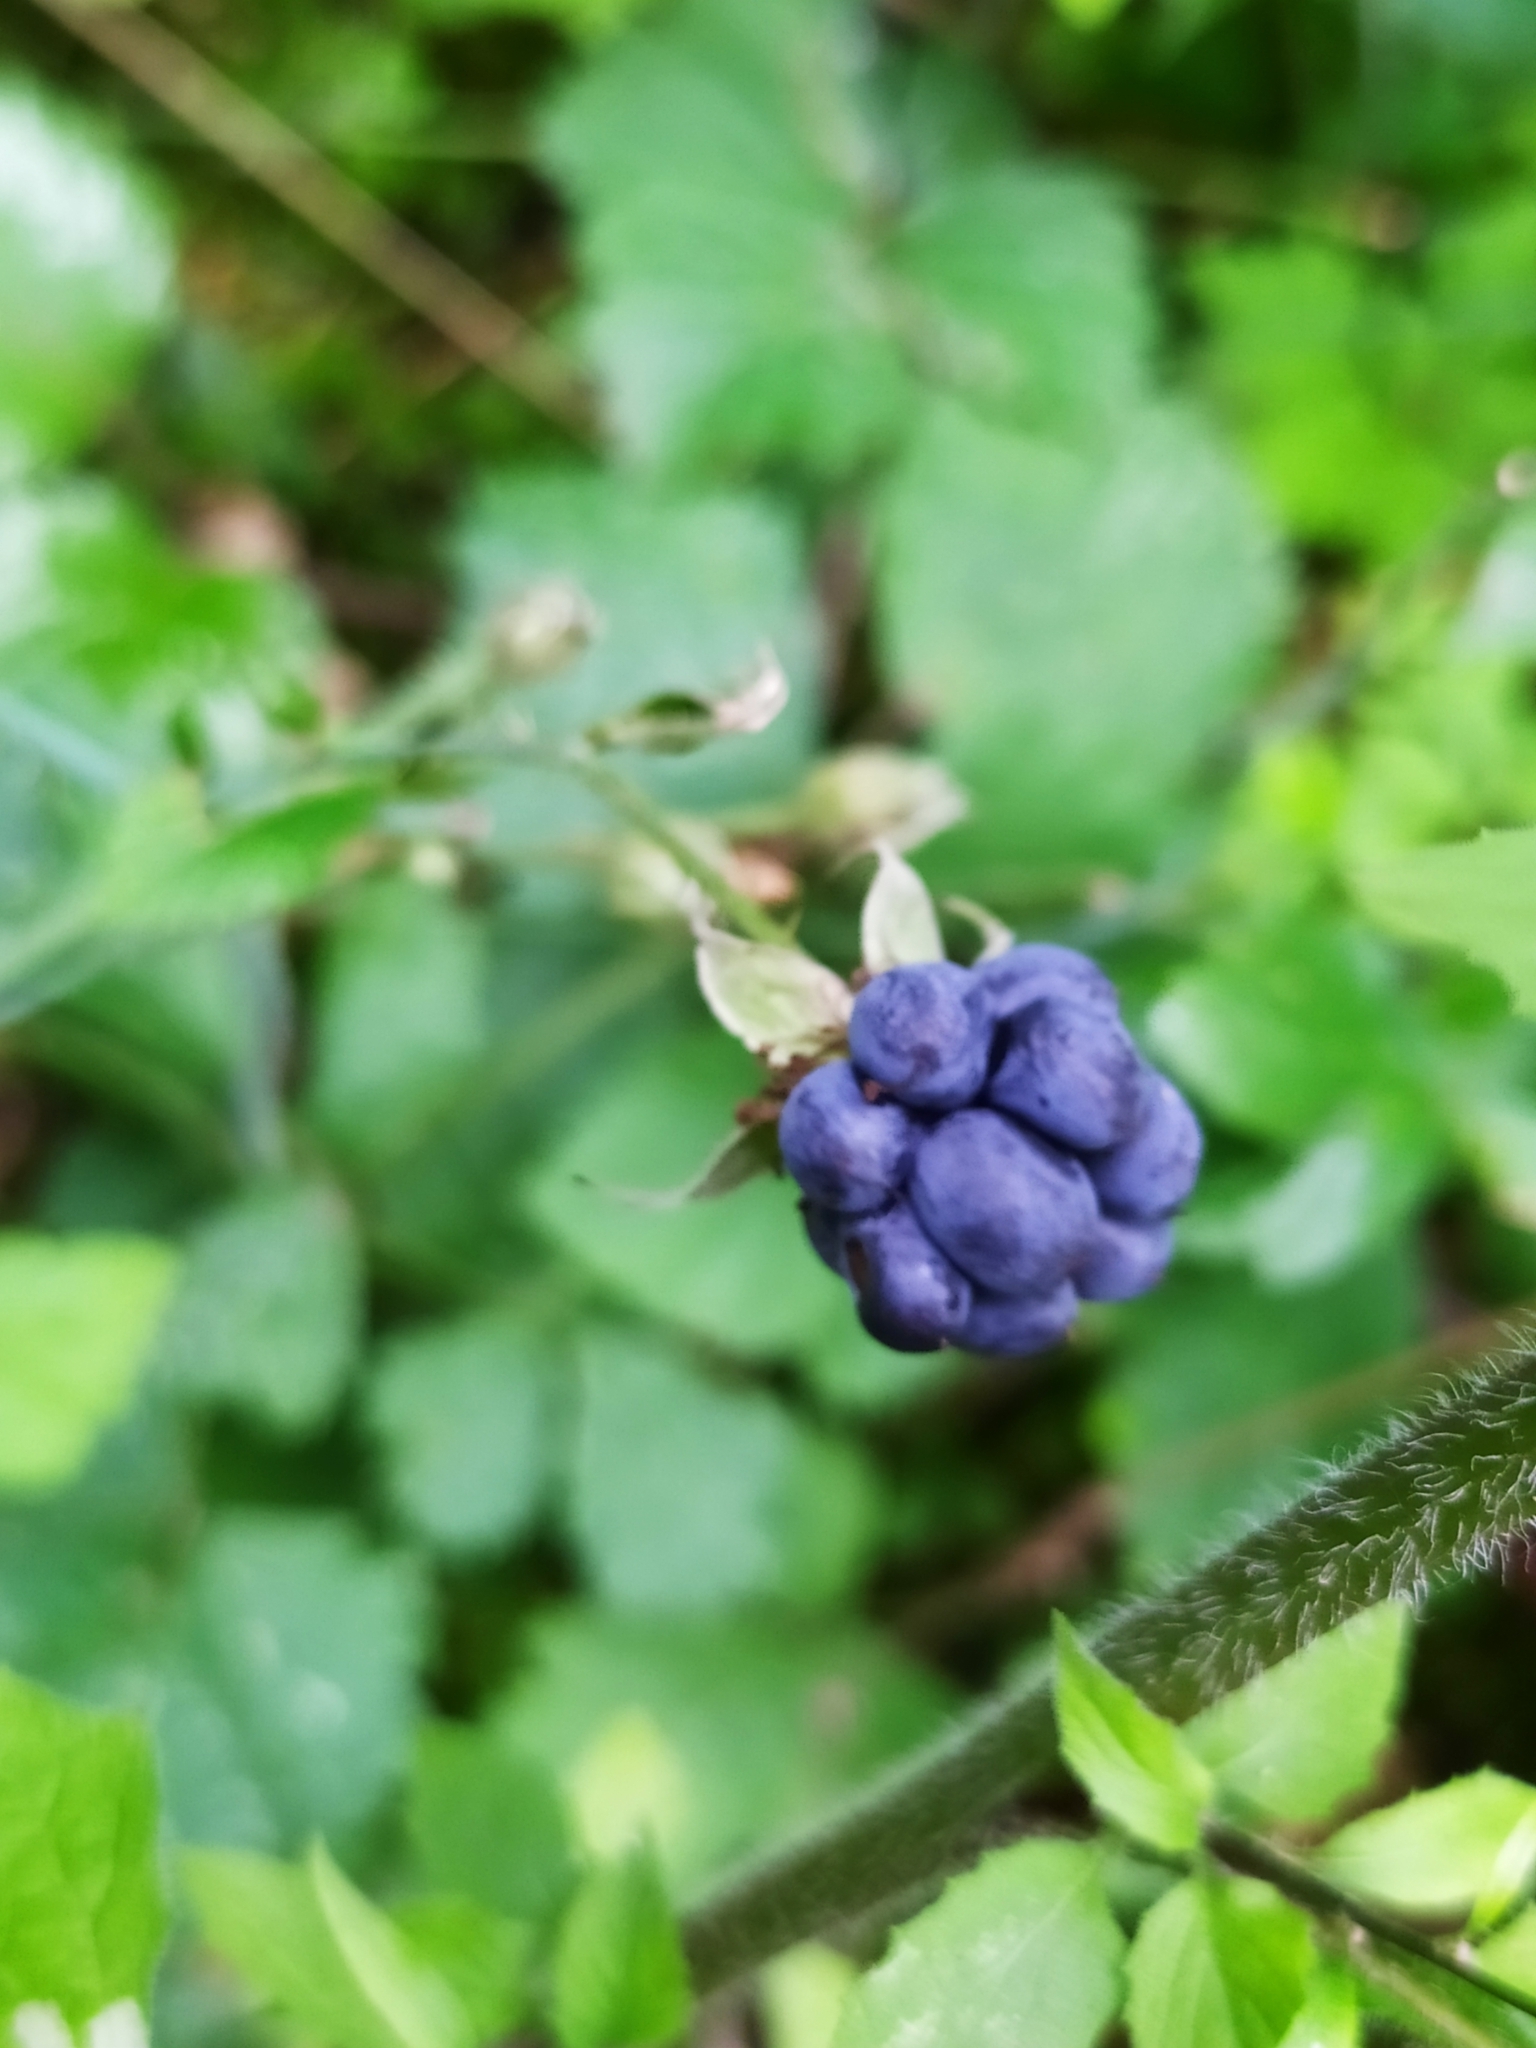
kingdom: Plantae
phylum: Tracheophyta
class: Magnoliopsida
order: Rosales
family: Rosaceae
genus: Rubus
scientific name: Rubus caesius
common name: Dewberry
